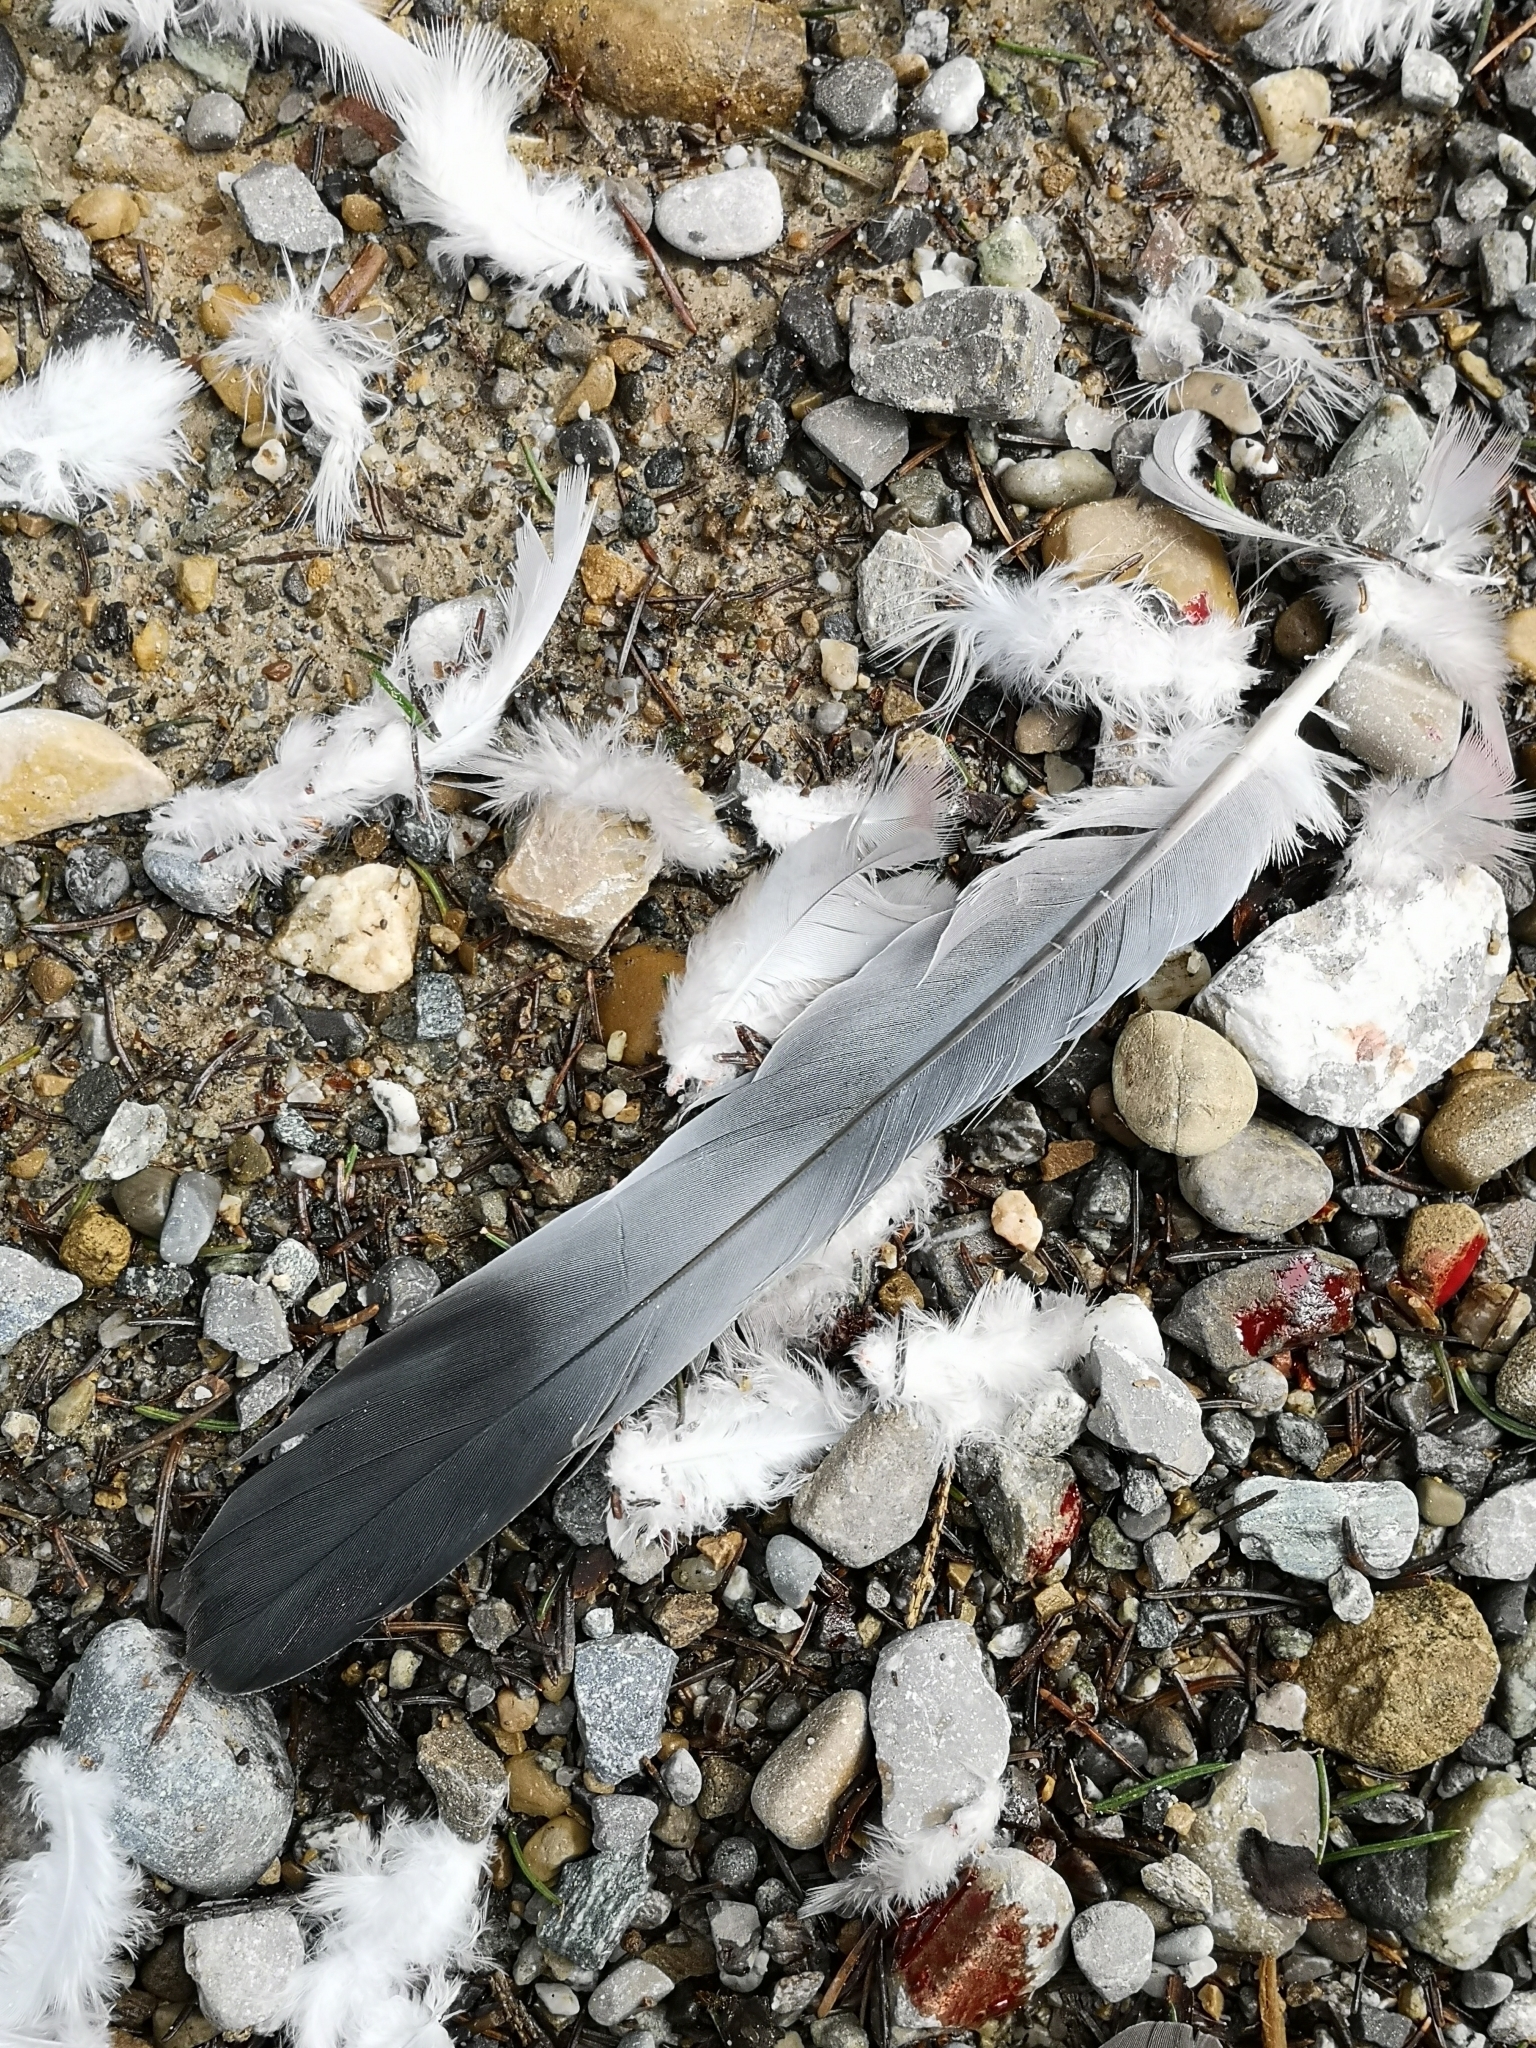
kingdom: Animalia
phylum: Chordata
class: Aves
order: Columbiformes
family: Columbidae
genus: Columba
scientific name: Columba palumbus
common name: Common wood pigeon
